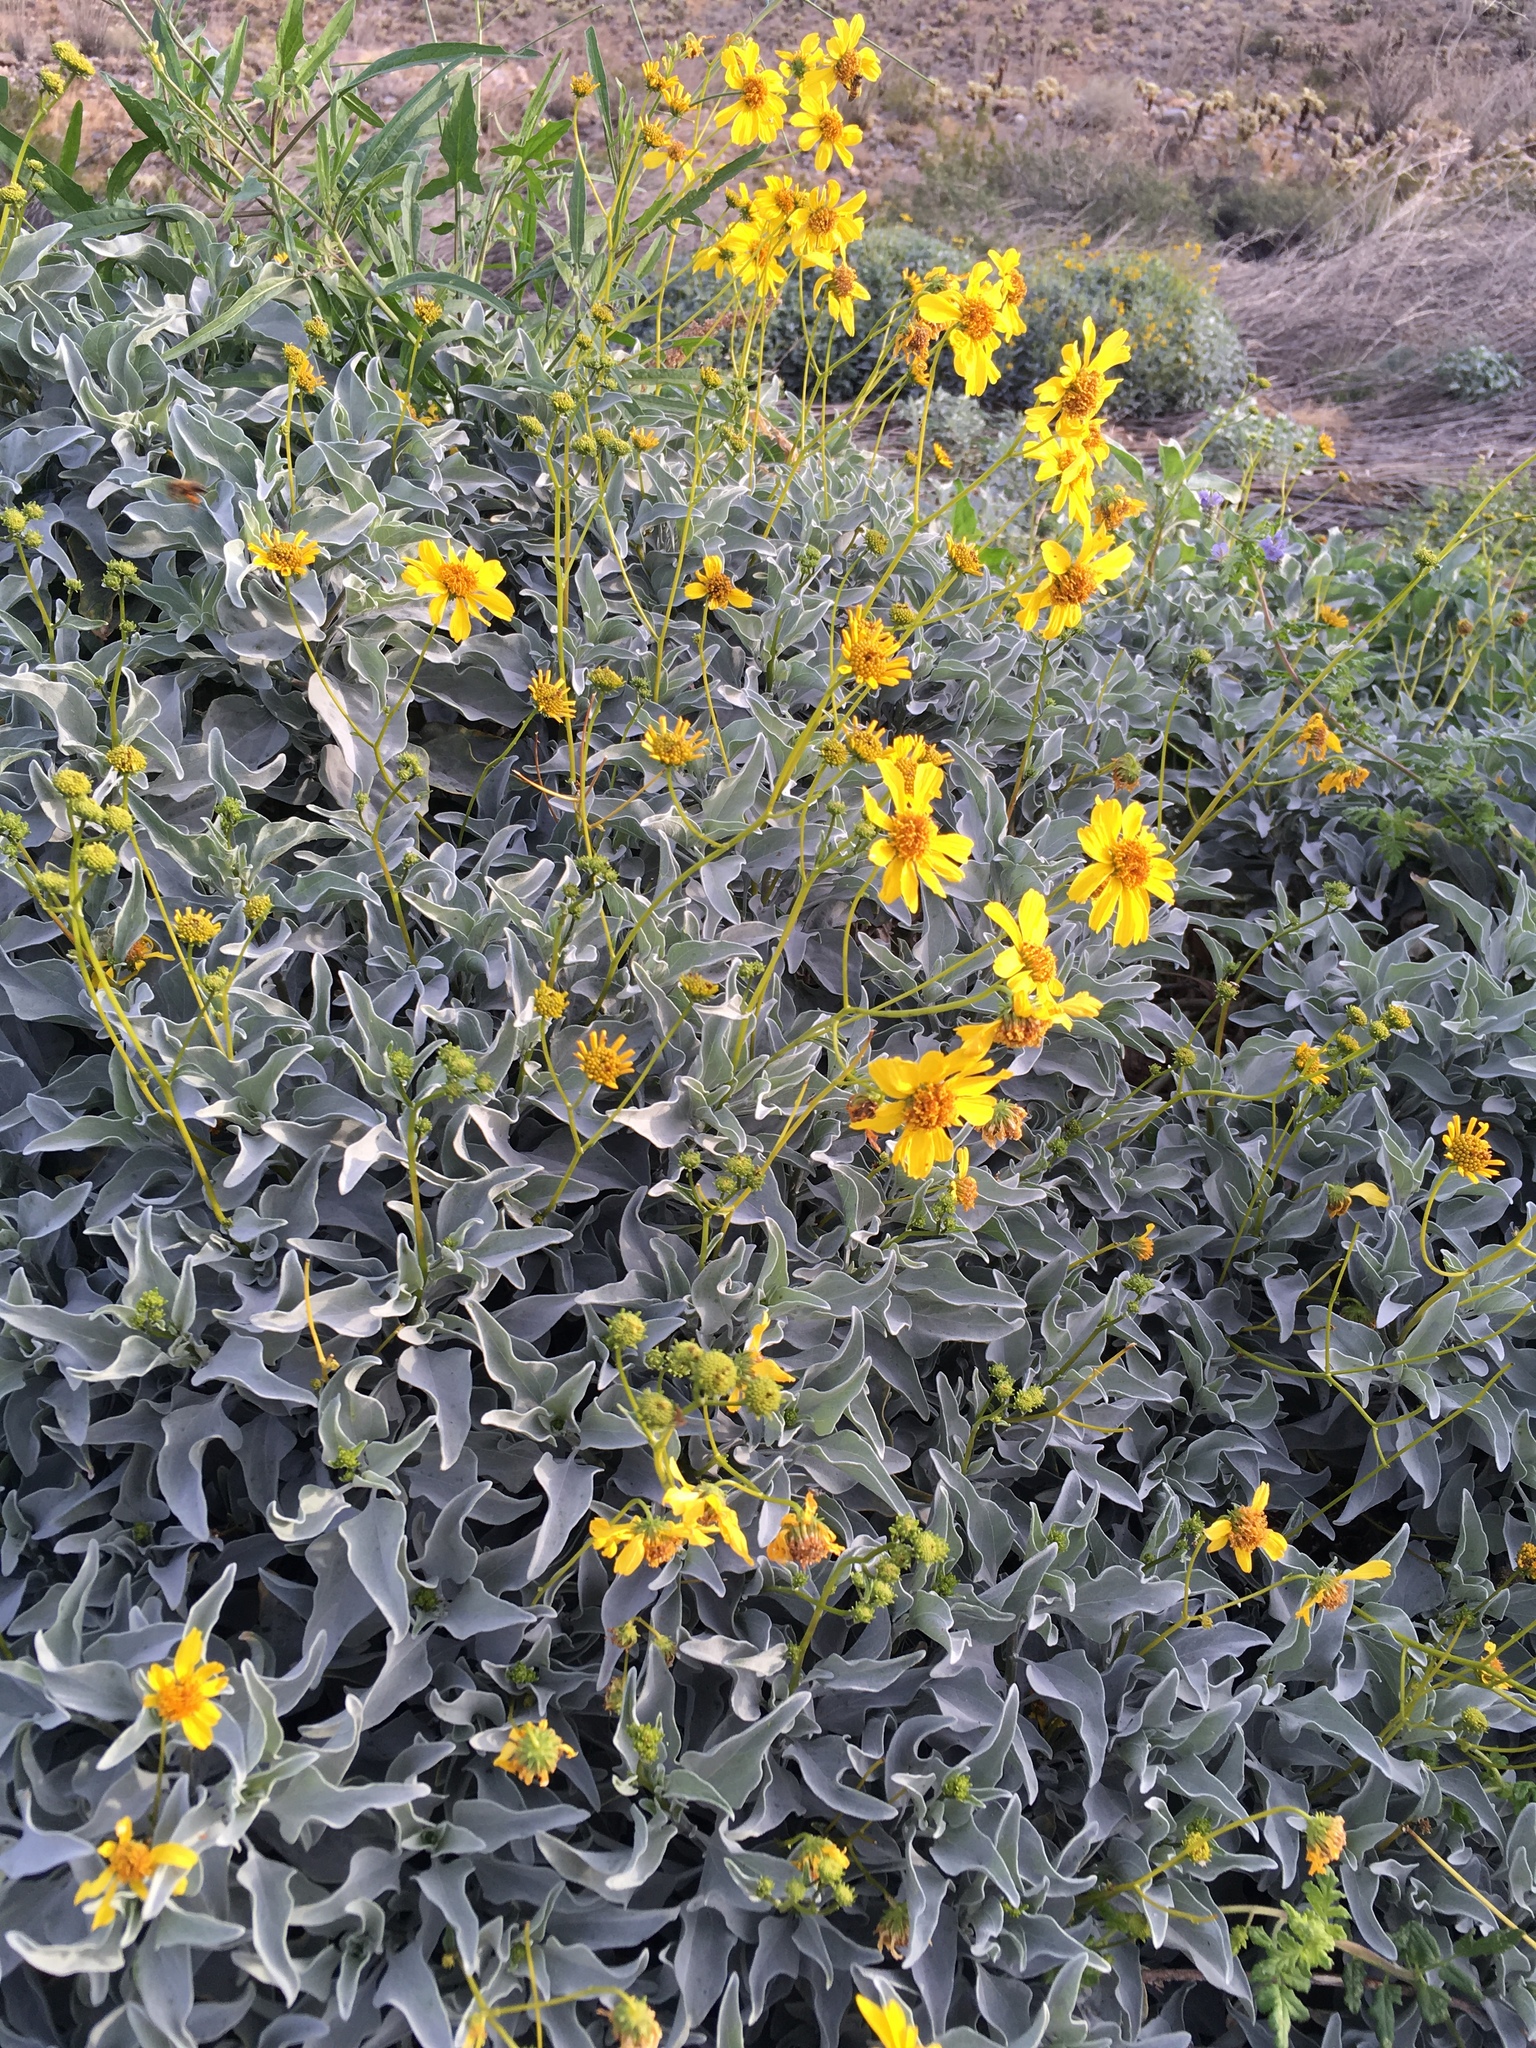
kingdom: Plantae
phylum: Tracheophyta
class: Magnoliopsida
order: Asterales
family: Asteraceae
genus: Encelia
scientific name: Encelia farinosa
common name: Brittlebush
